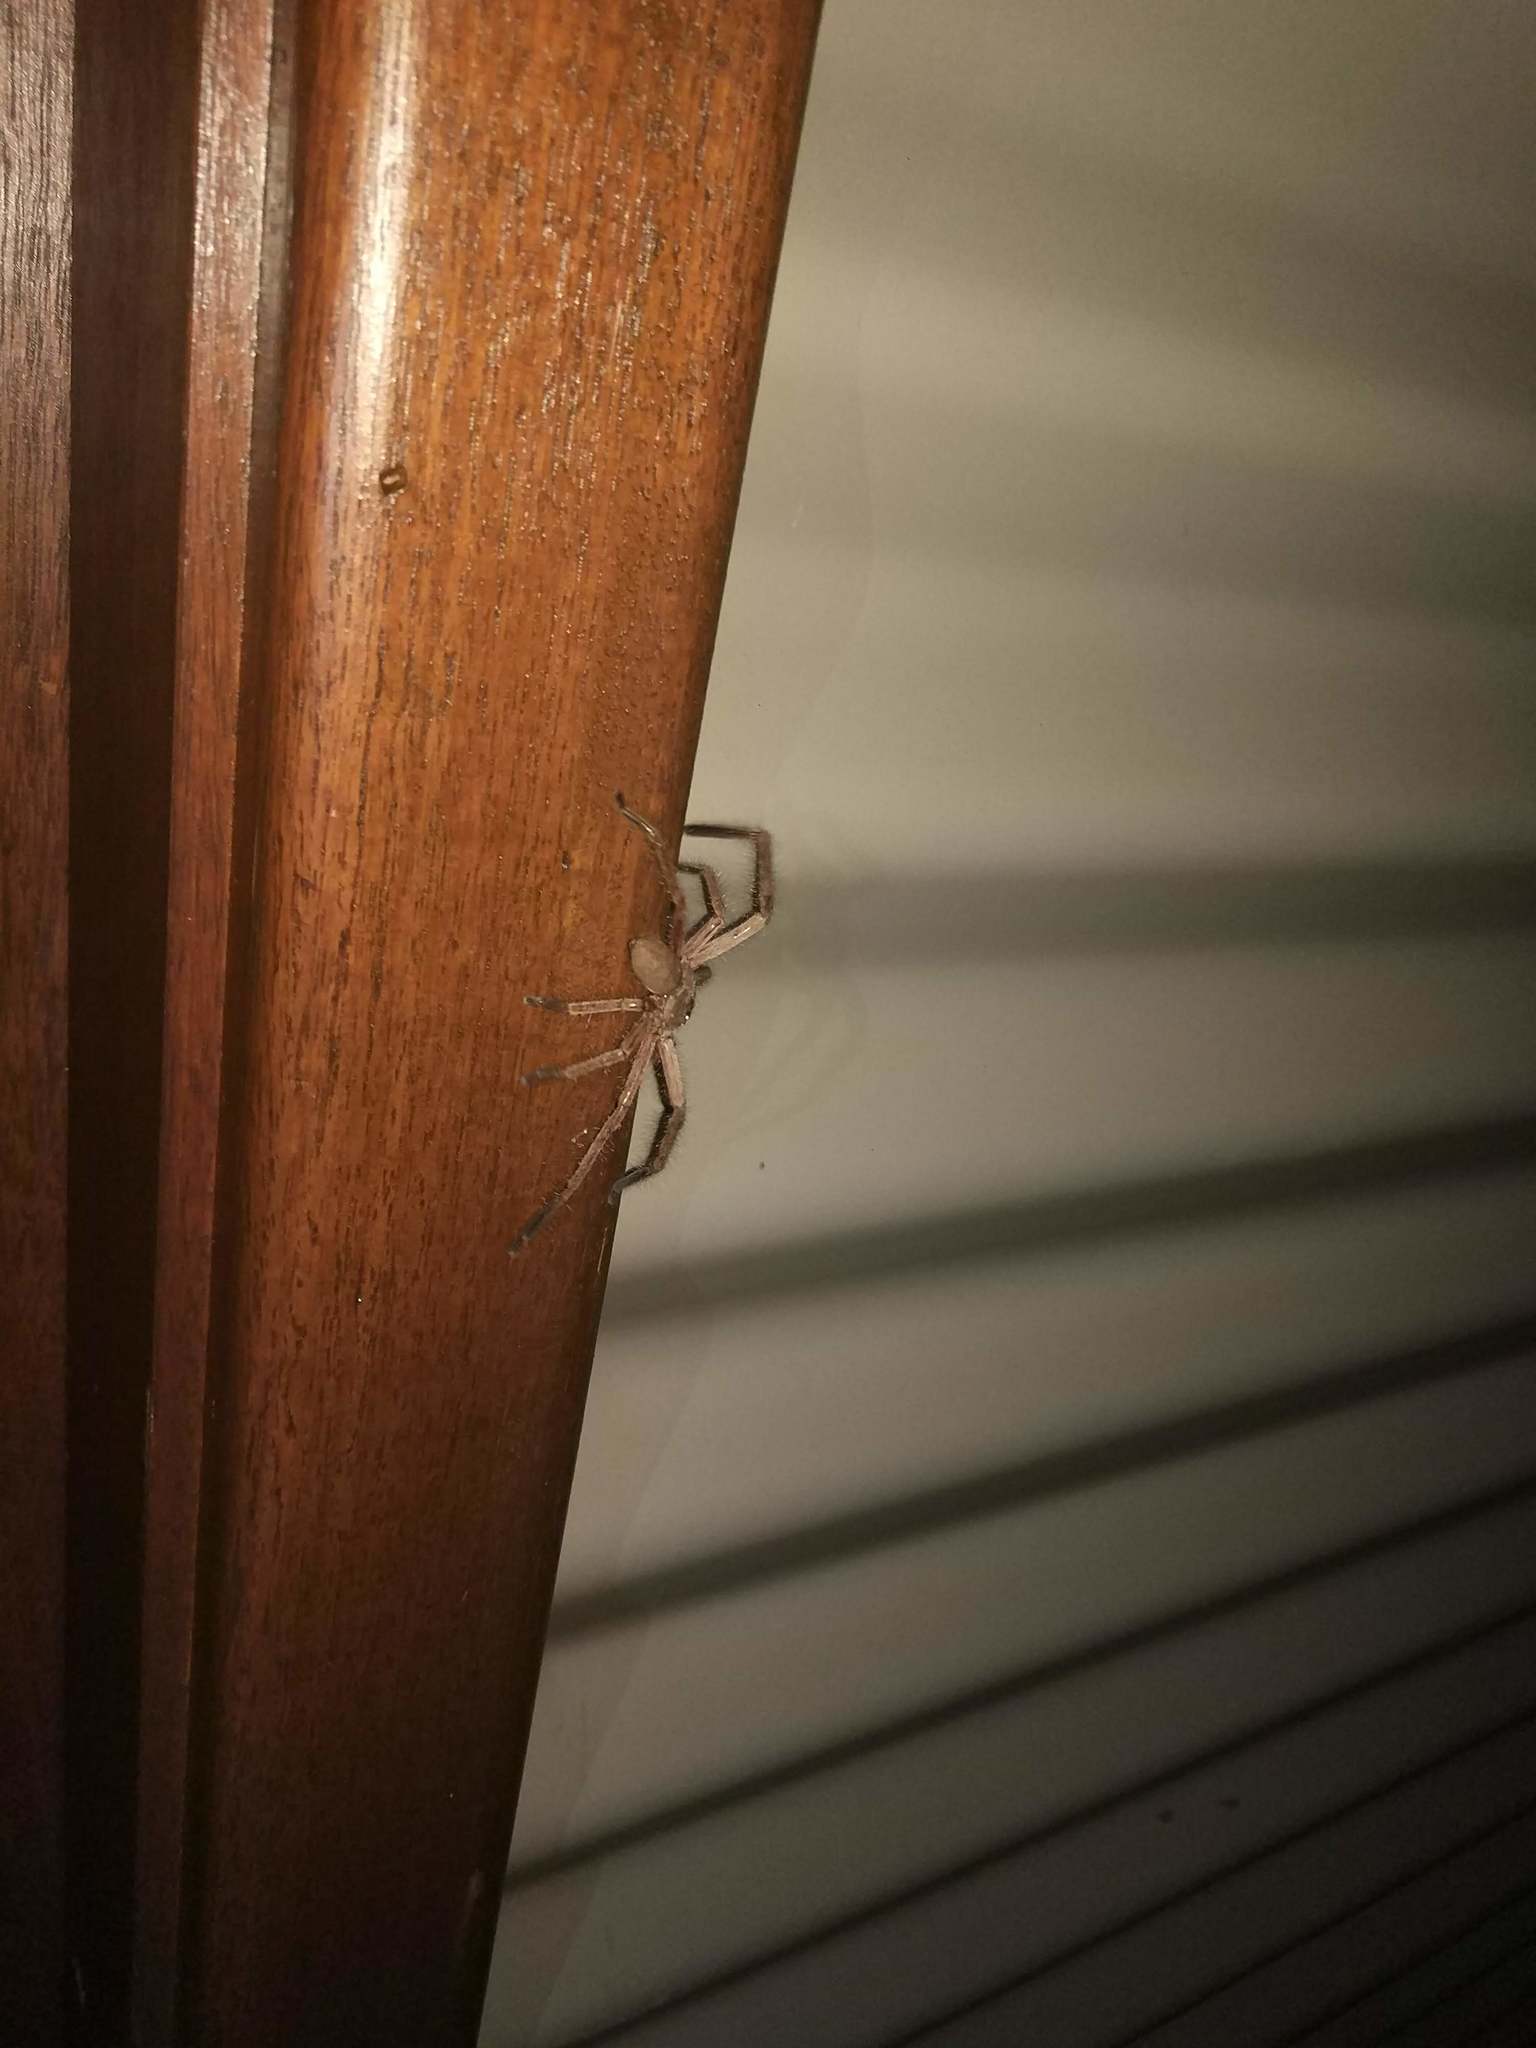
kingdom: Animalia
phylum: Arthropoda
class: Arachnida
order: Araneae
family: Sparassidae
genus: Delena
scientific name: Delena cancerides
